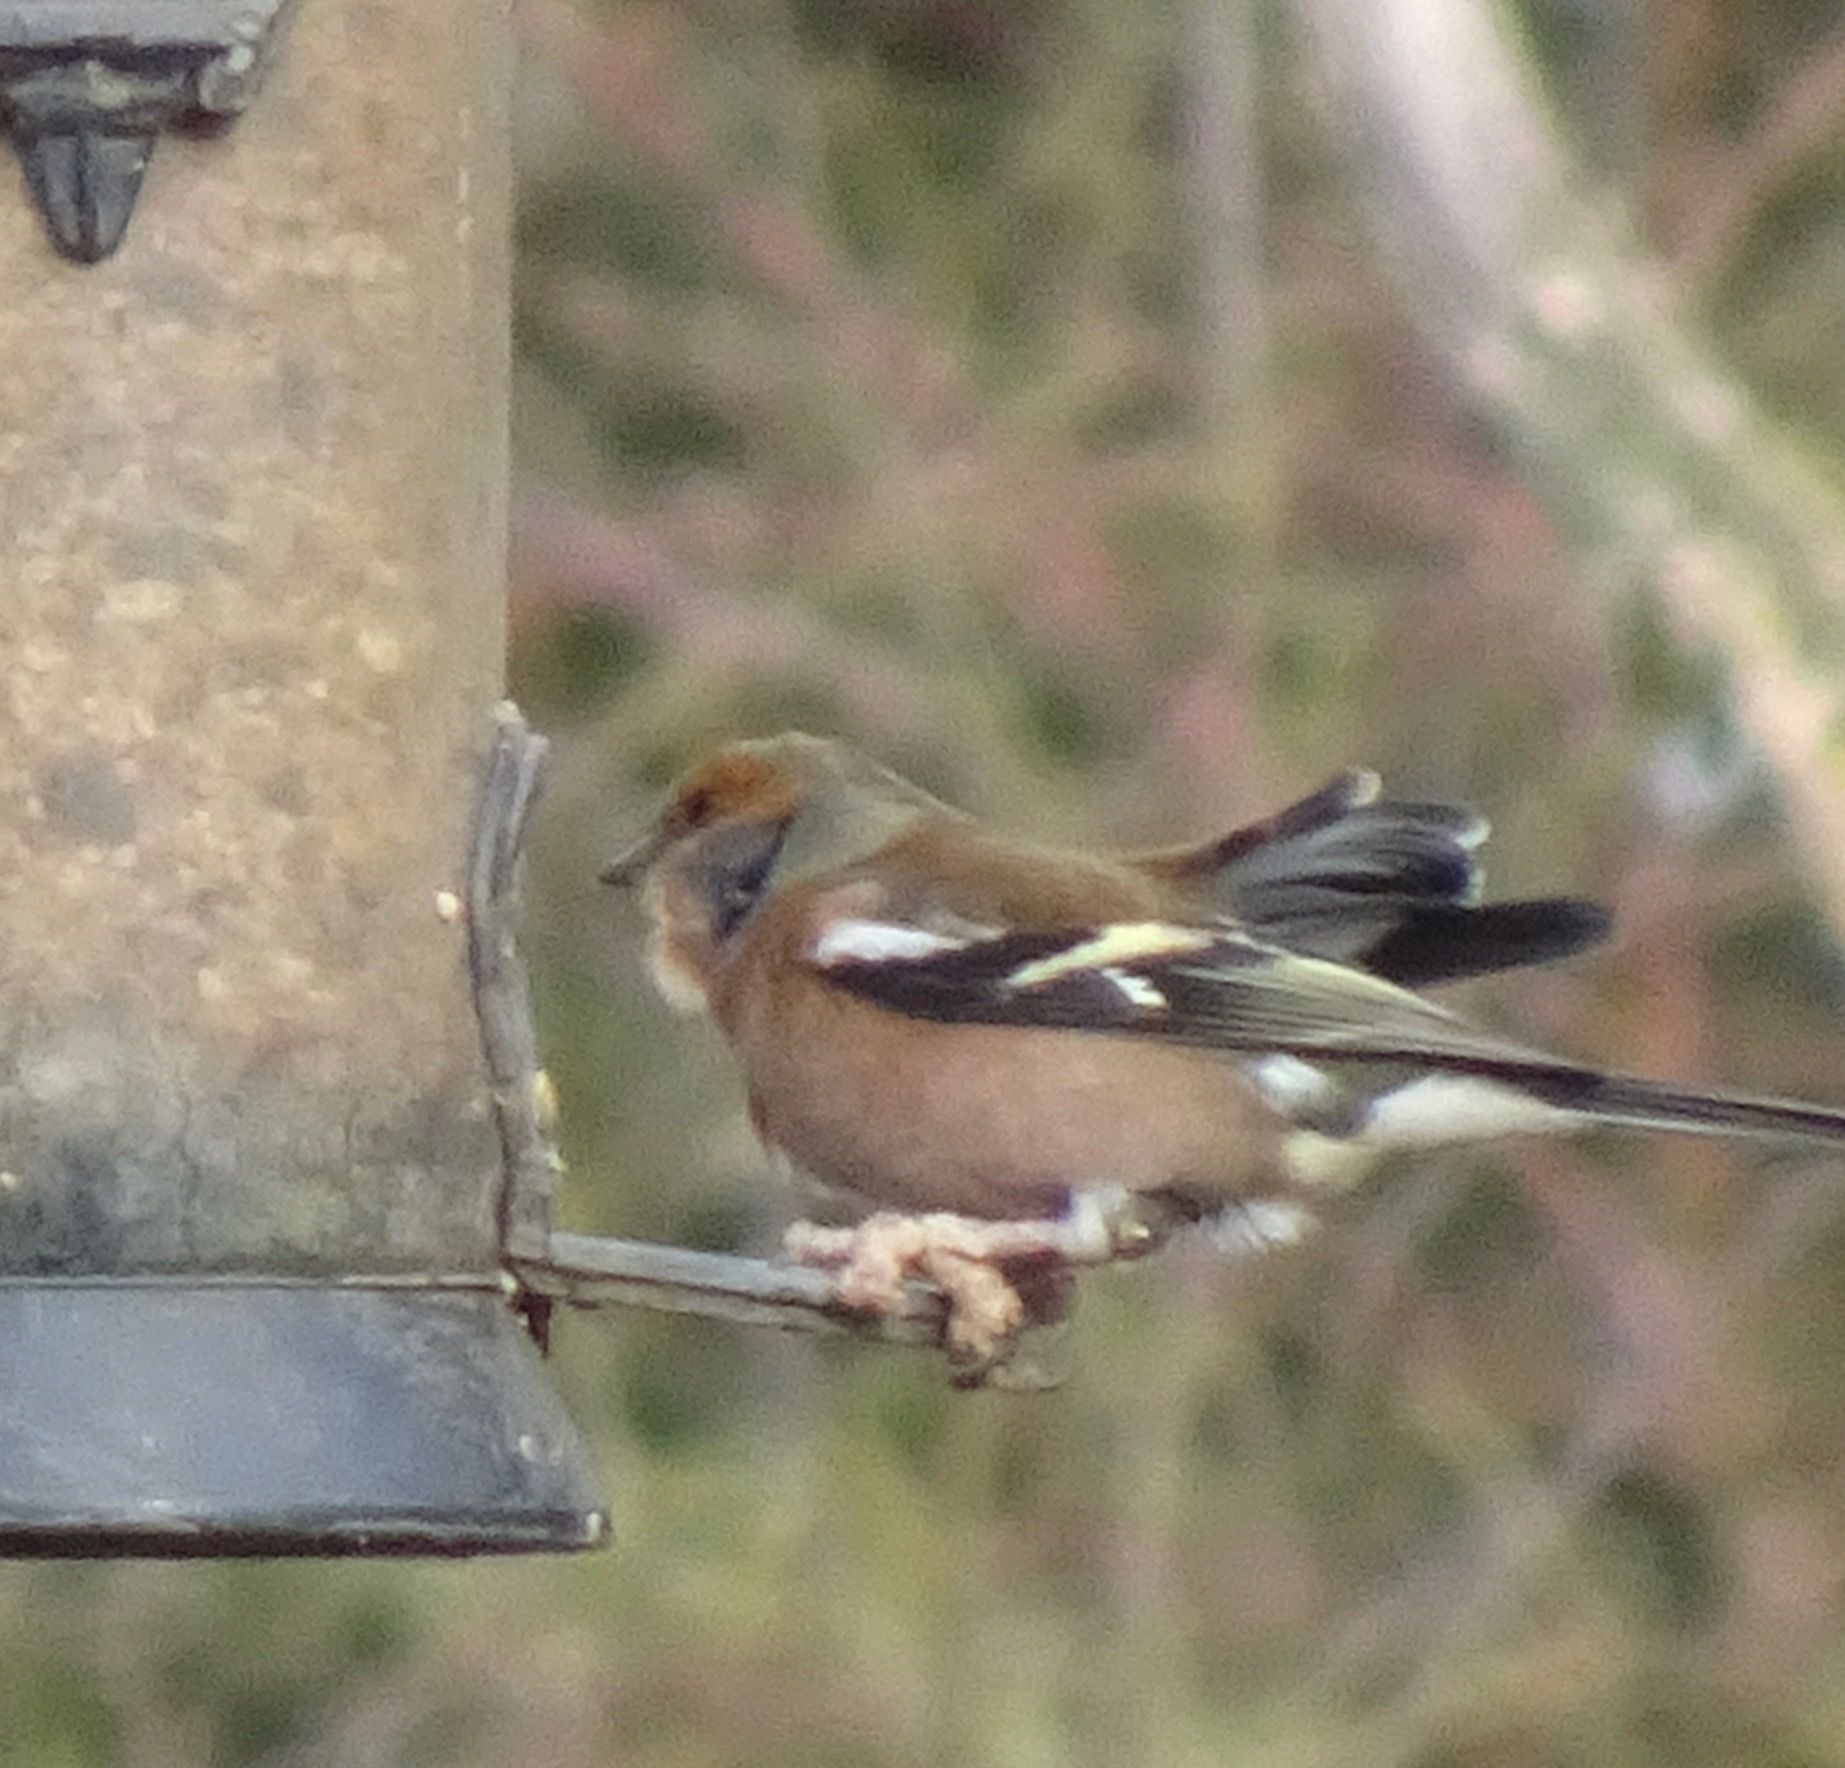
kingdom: Animalia
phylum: Chordata
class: Aves
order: Passeriformes
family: Fringillidae
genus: Fringilla
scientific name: Fringilla coelebs
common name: Common chaffinch
